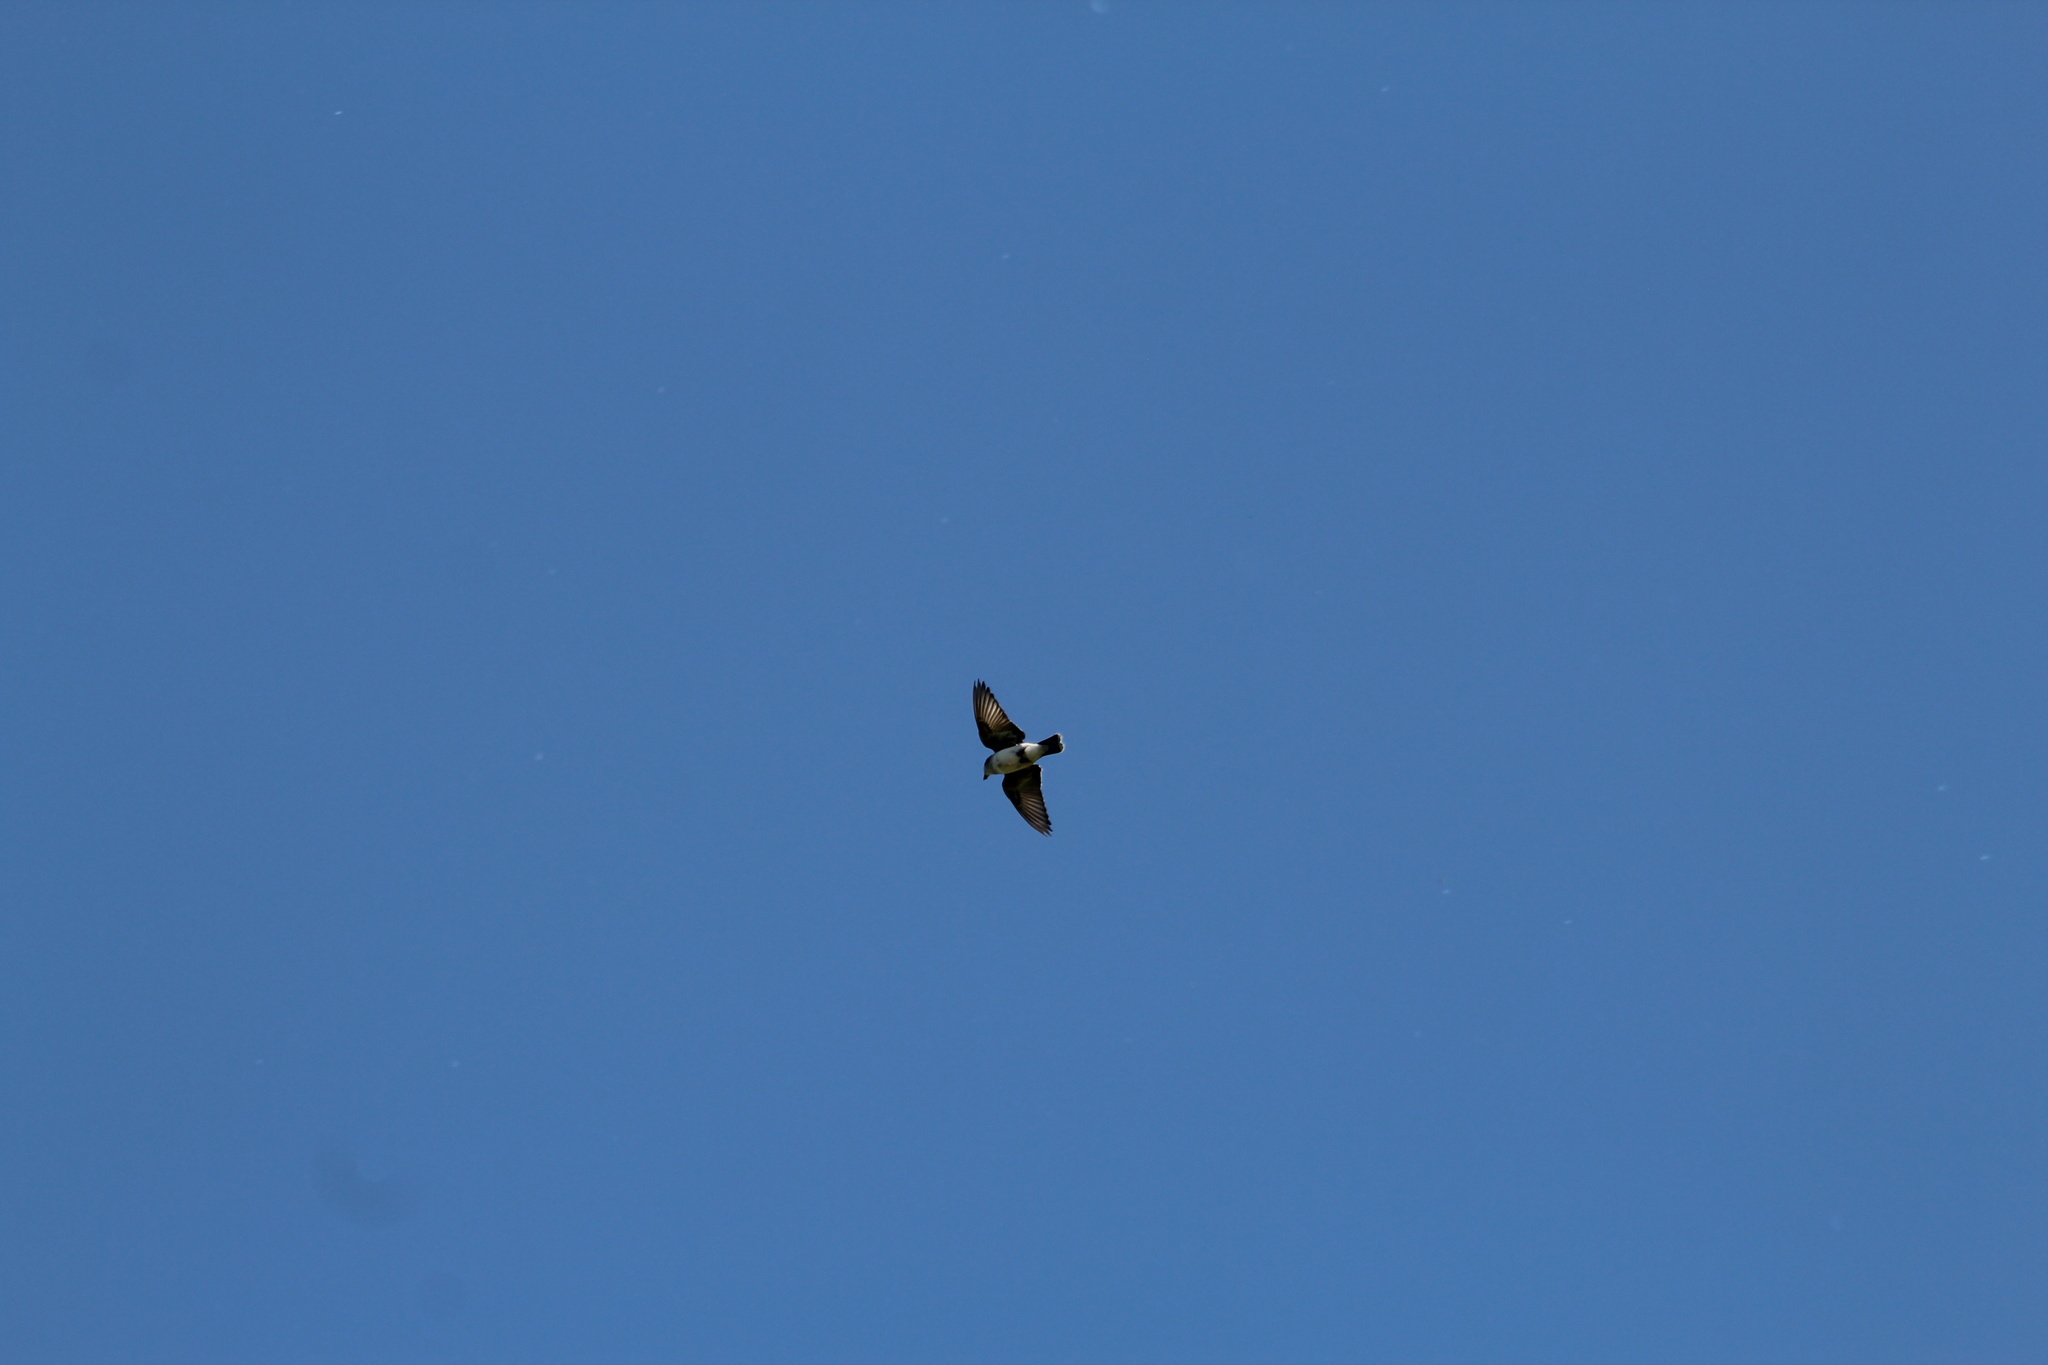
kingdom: Animalia
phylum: Chordata
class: Aves
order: Passeriformes
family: Tyrannidae
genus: Tyrannus
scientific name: Tyrannus tyrannus
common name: Eastern kingbird
